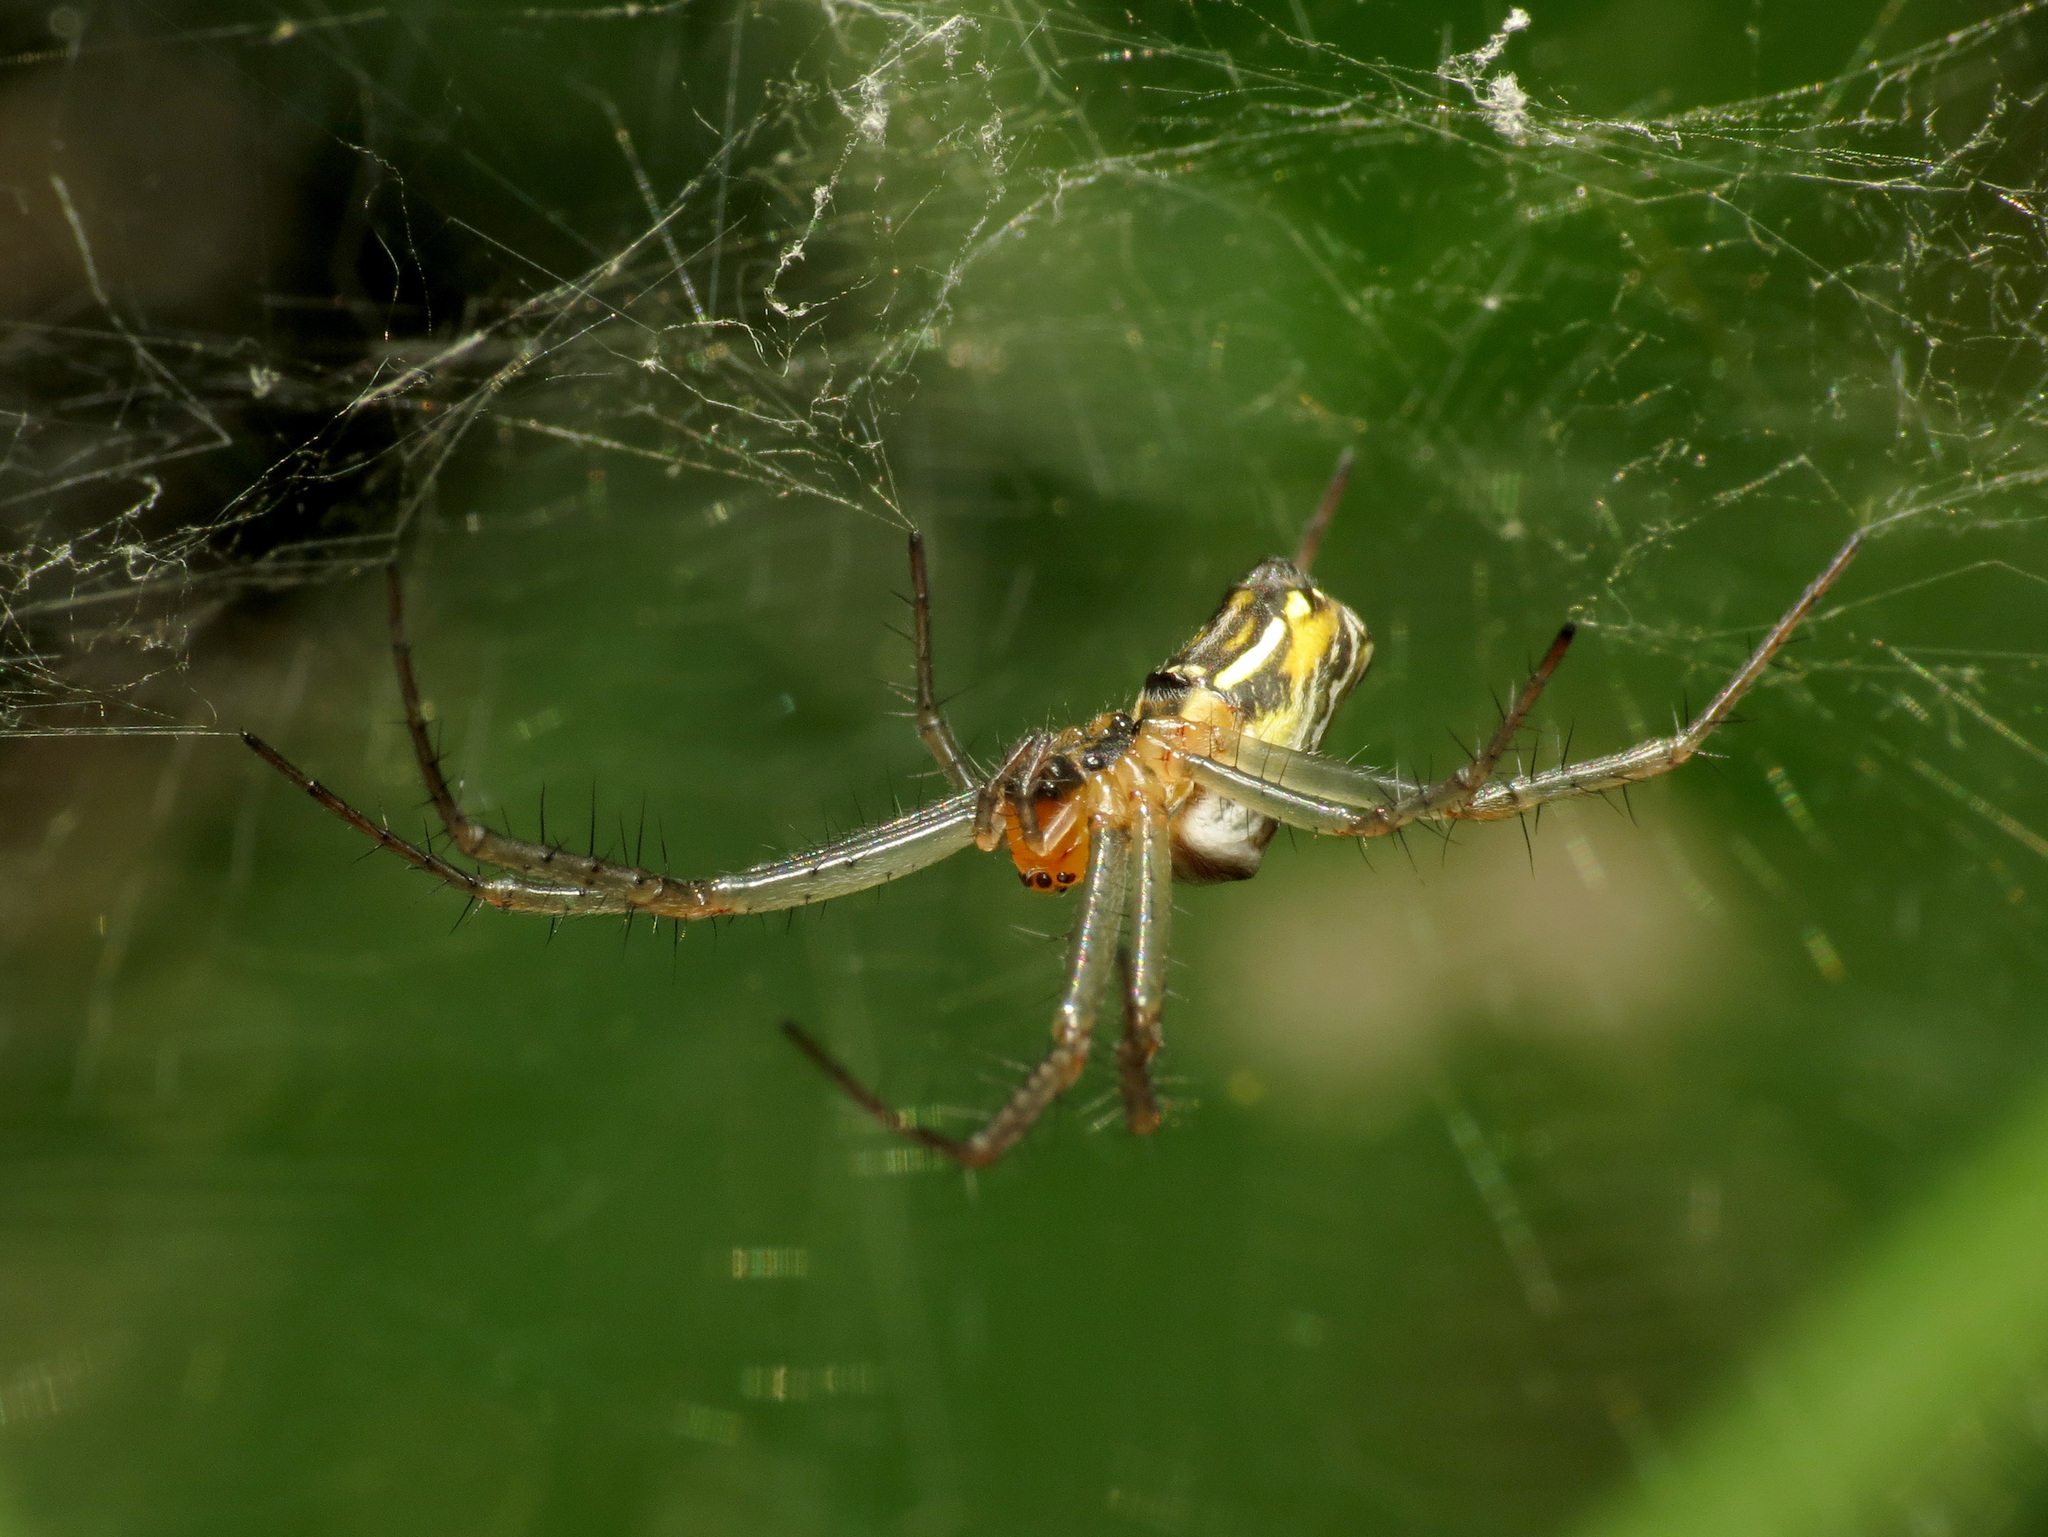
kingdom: Animalia
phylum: Arthropoda
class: Arachnida
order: Araneae
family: Araneidae
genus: Mecynogea
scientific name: Mecynogea lemniscata
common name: Orb weavers
